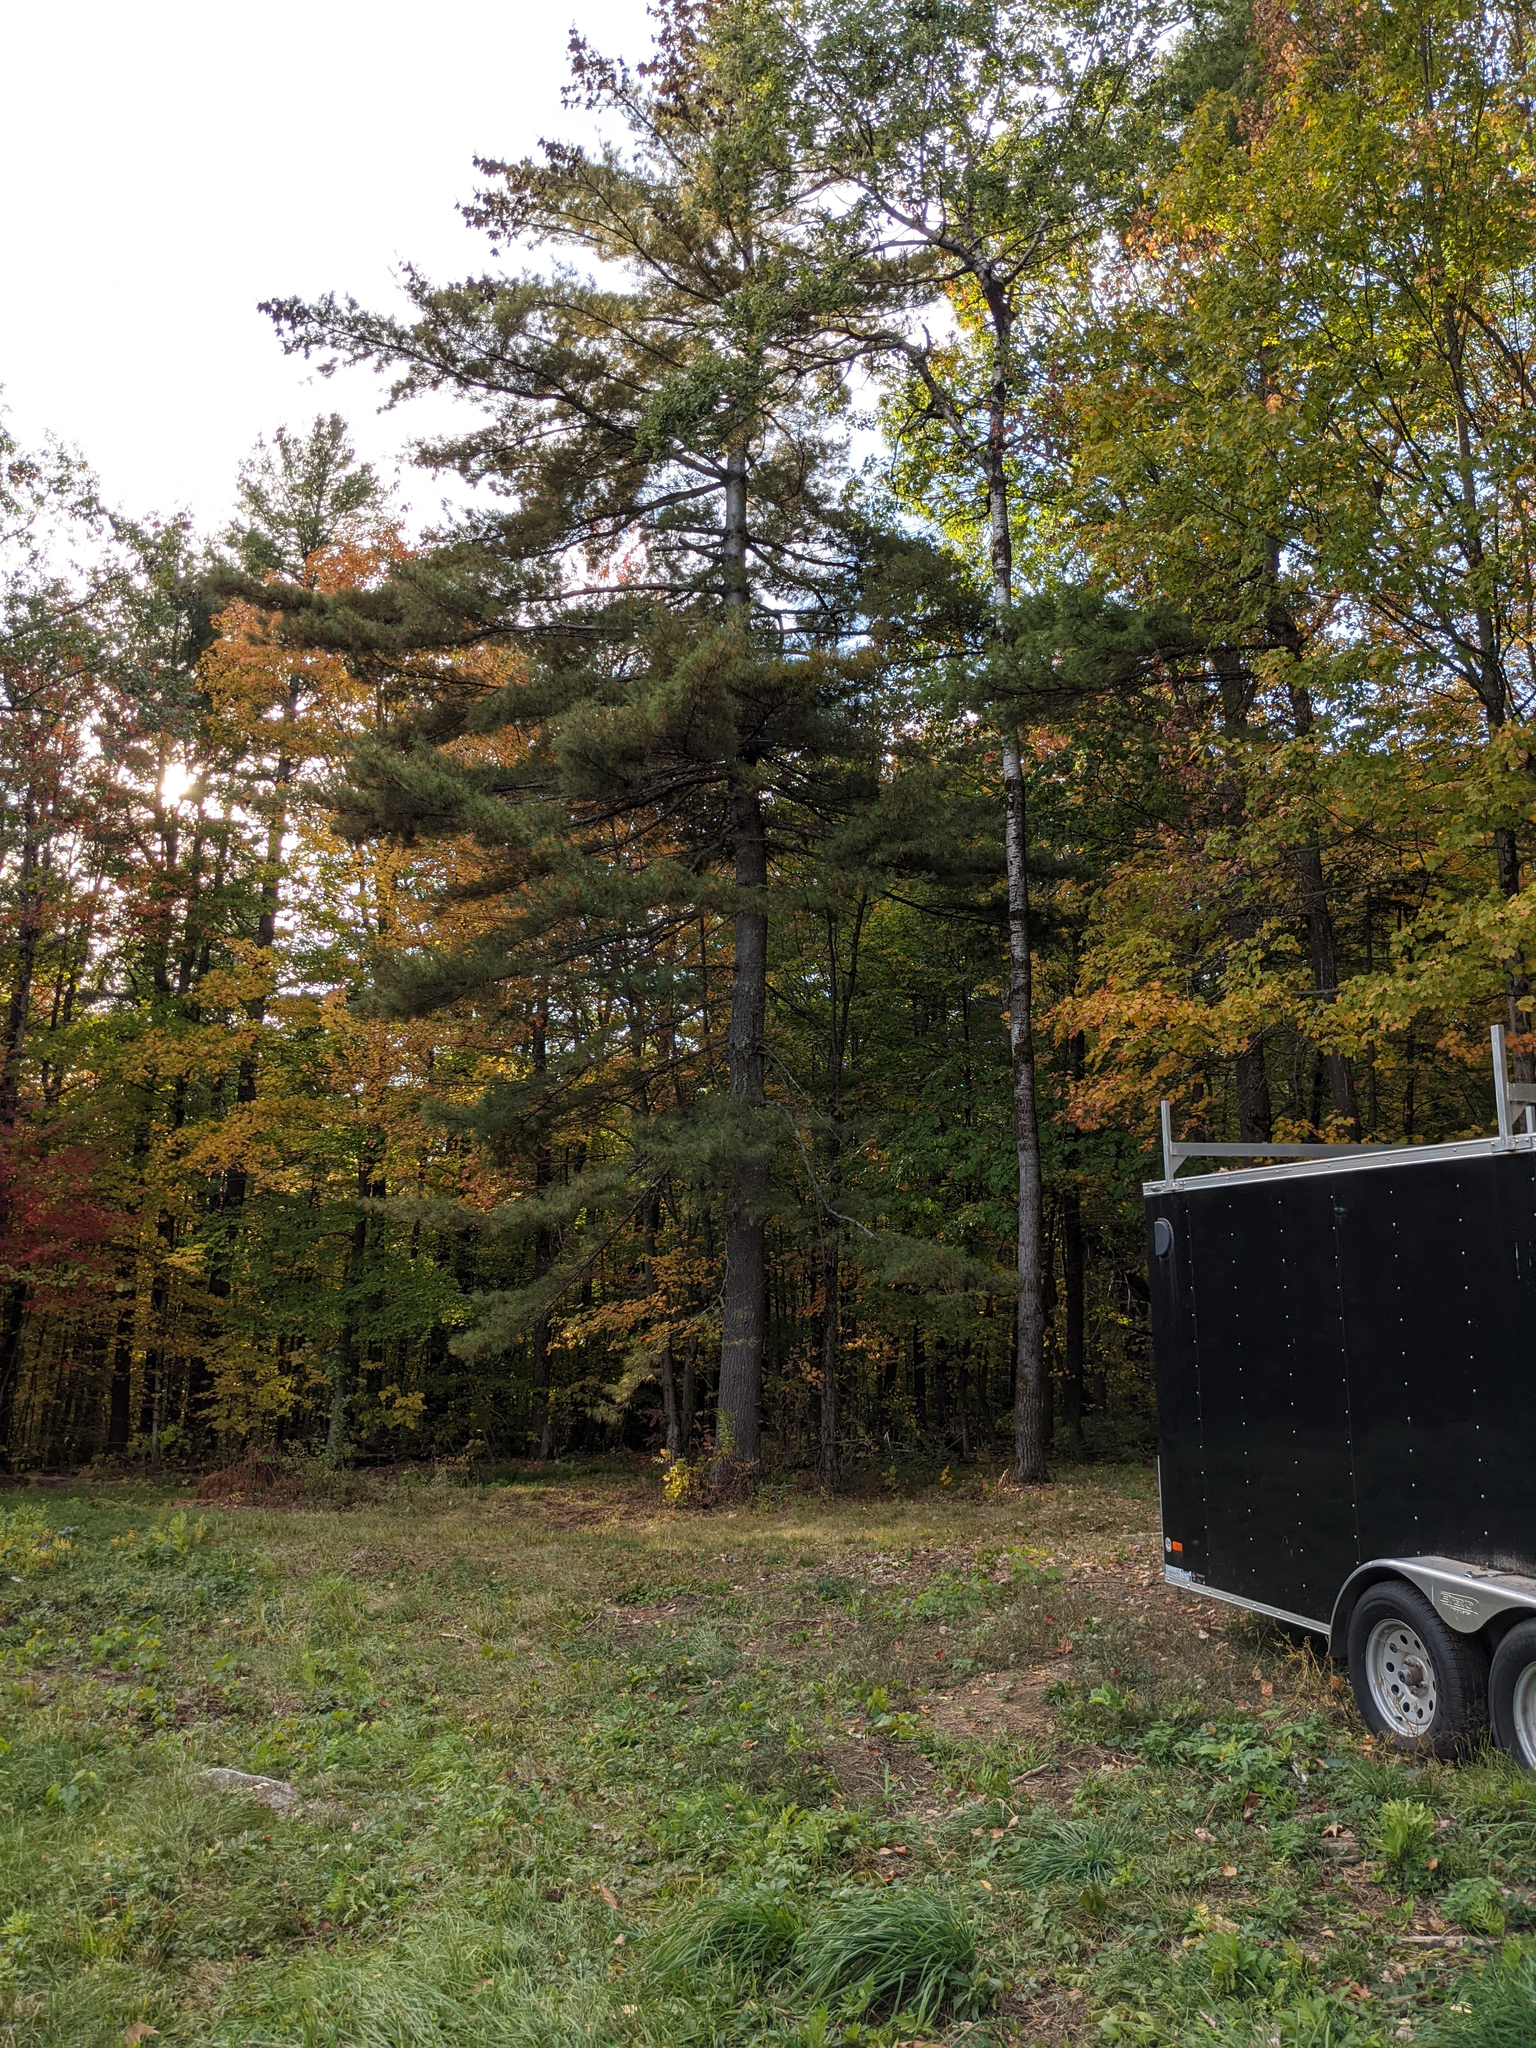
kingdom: Plantae
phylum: Tracheophyta
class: Pinopsida
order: Pinales
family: Pinaceae
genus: Pinus
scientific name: Pinus strobus
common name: Weymouth pine
